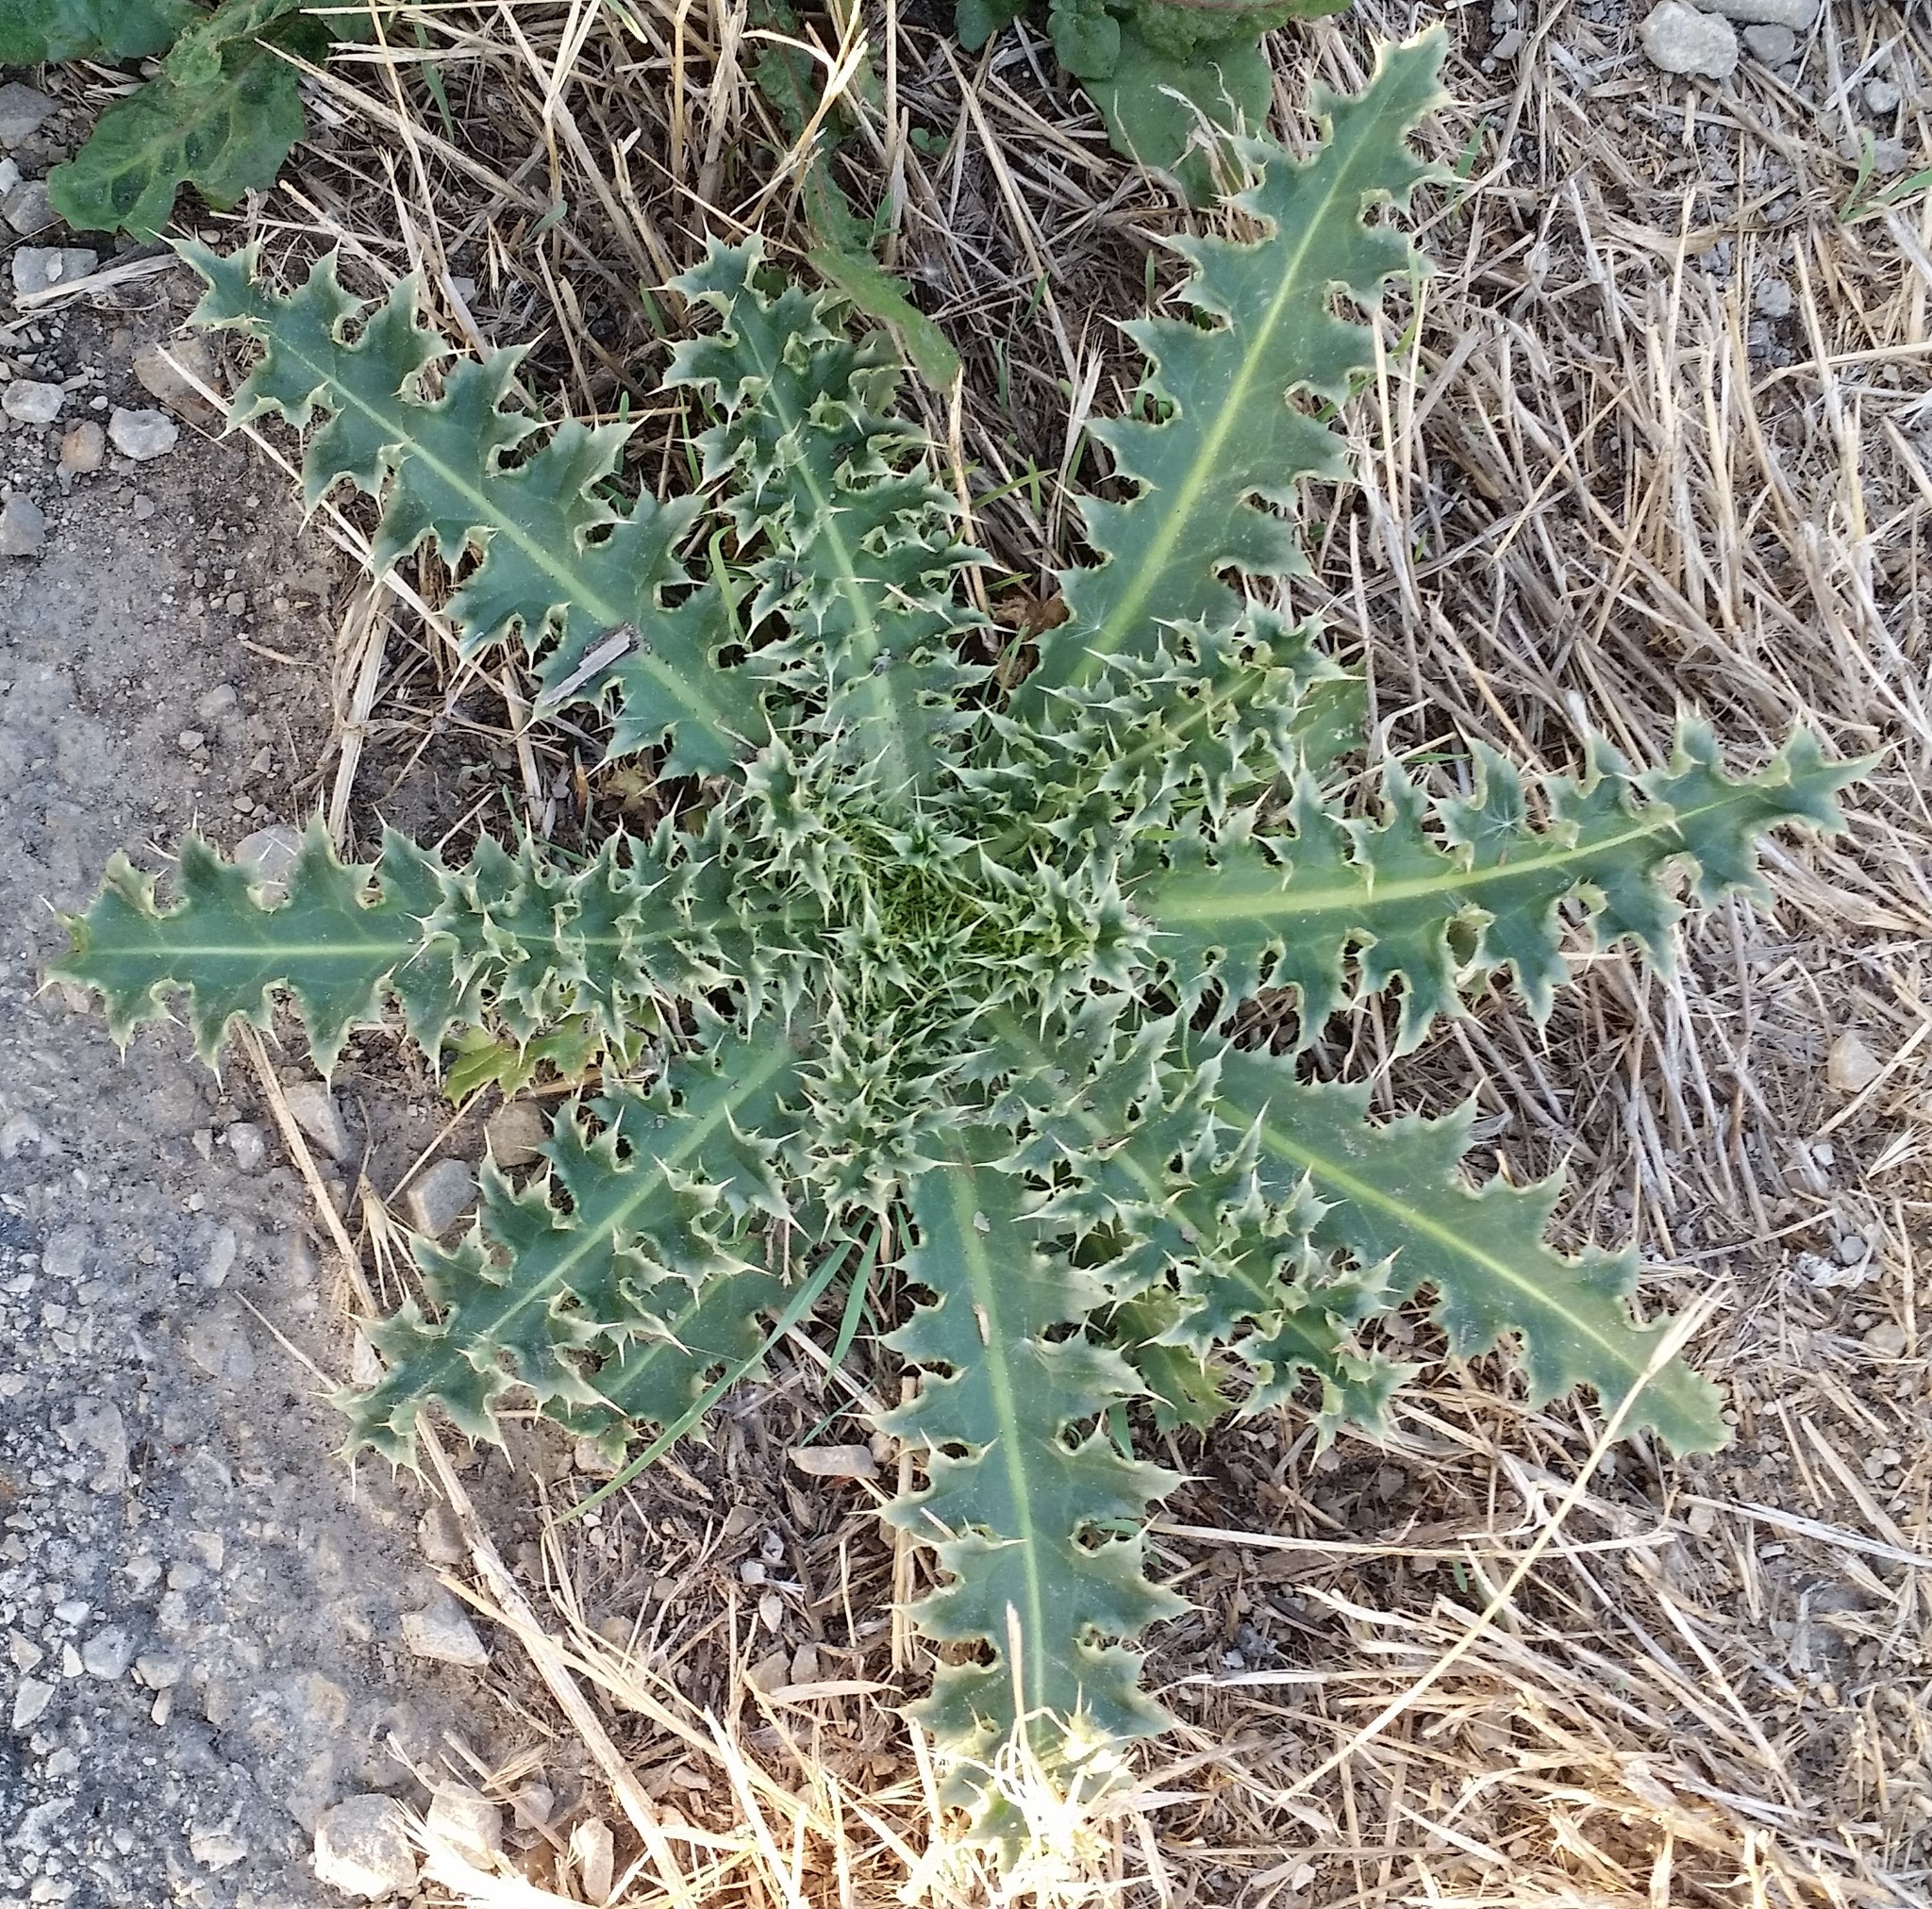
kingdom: Plantae
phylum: Tracheophyta
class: Magnoliopsida
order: Asterales
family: Asteraceae
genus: Carduus
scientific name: Carduus nutans
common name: Musk thistle
